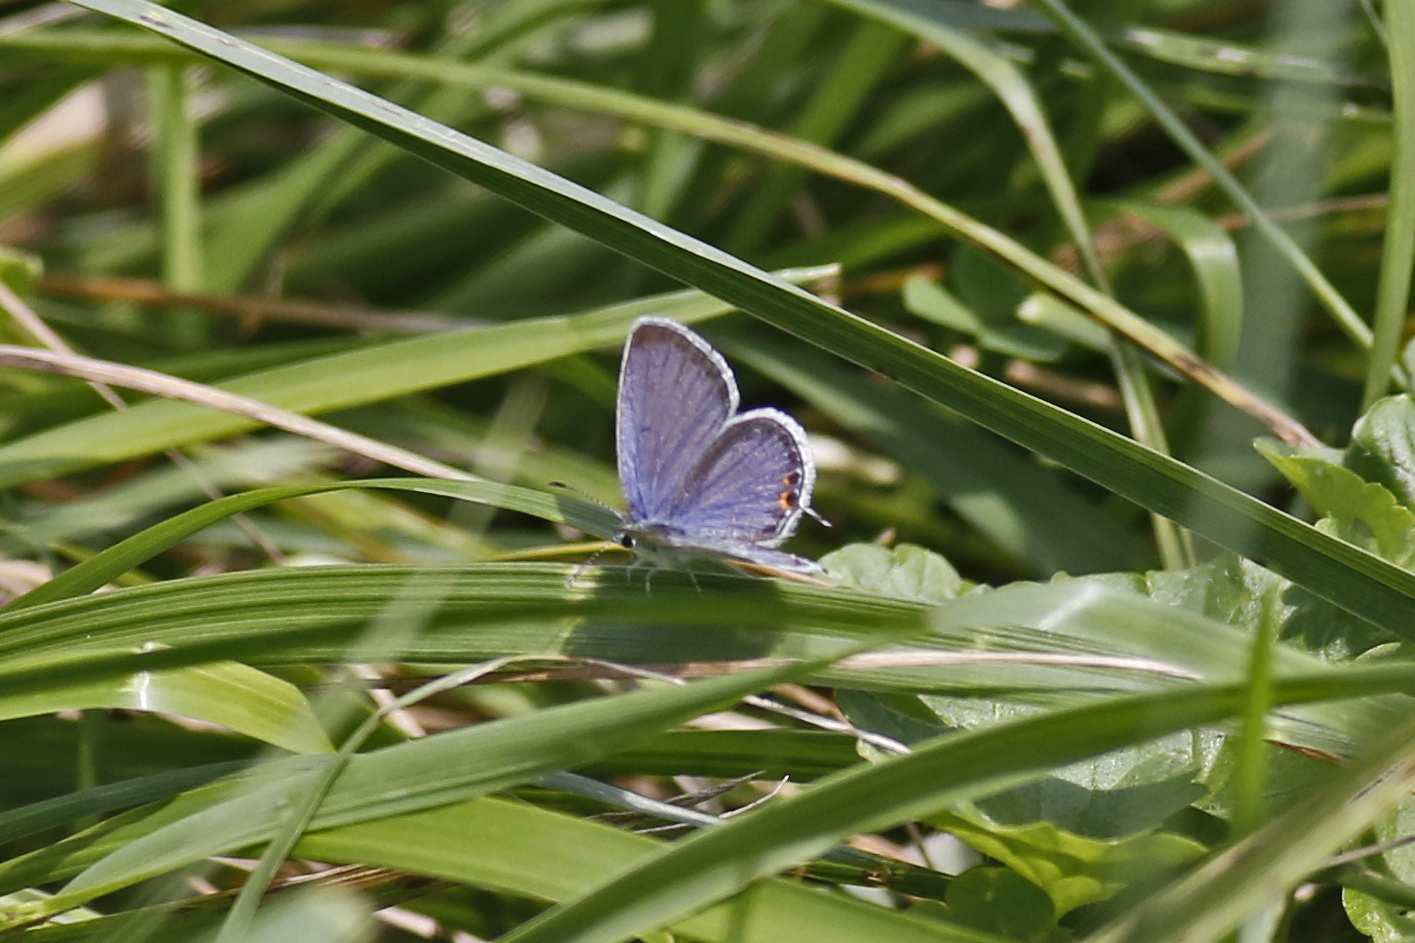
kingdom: Animalia
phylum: Arthropoda
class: Insecta
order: Lepidoptera
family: Lycaenidae
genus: Elkalyce
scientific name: Elkalyce comyntas
